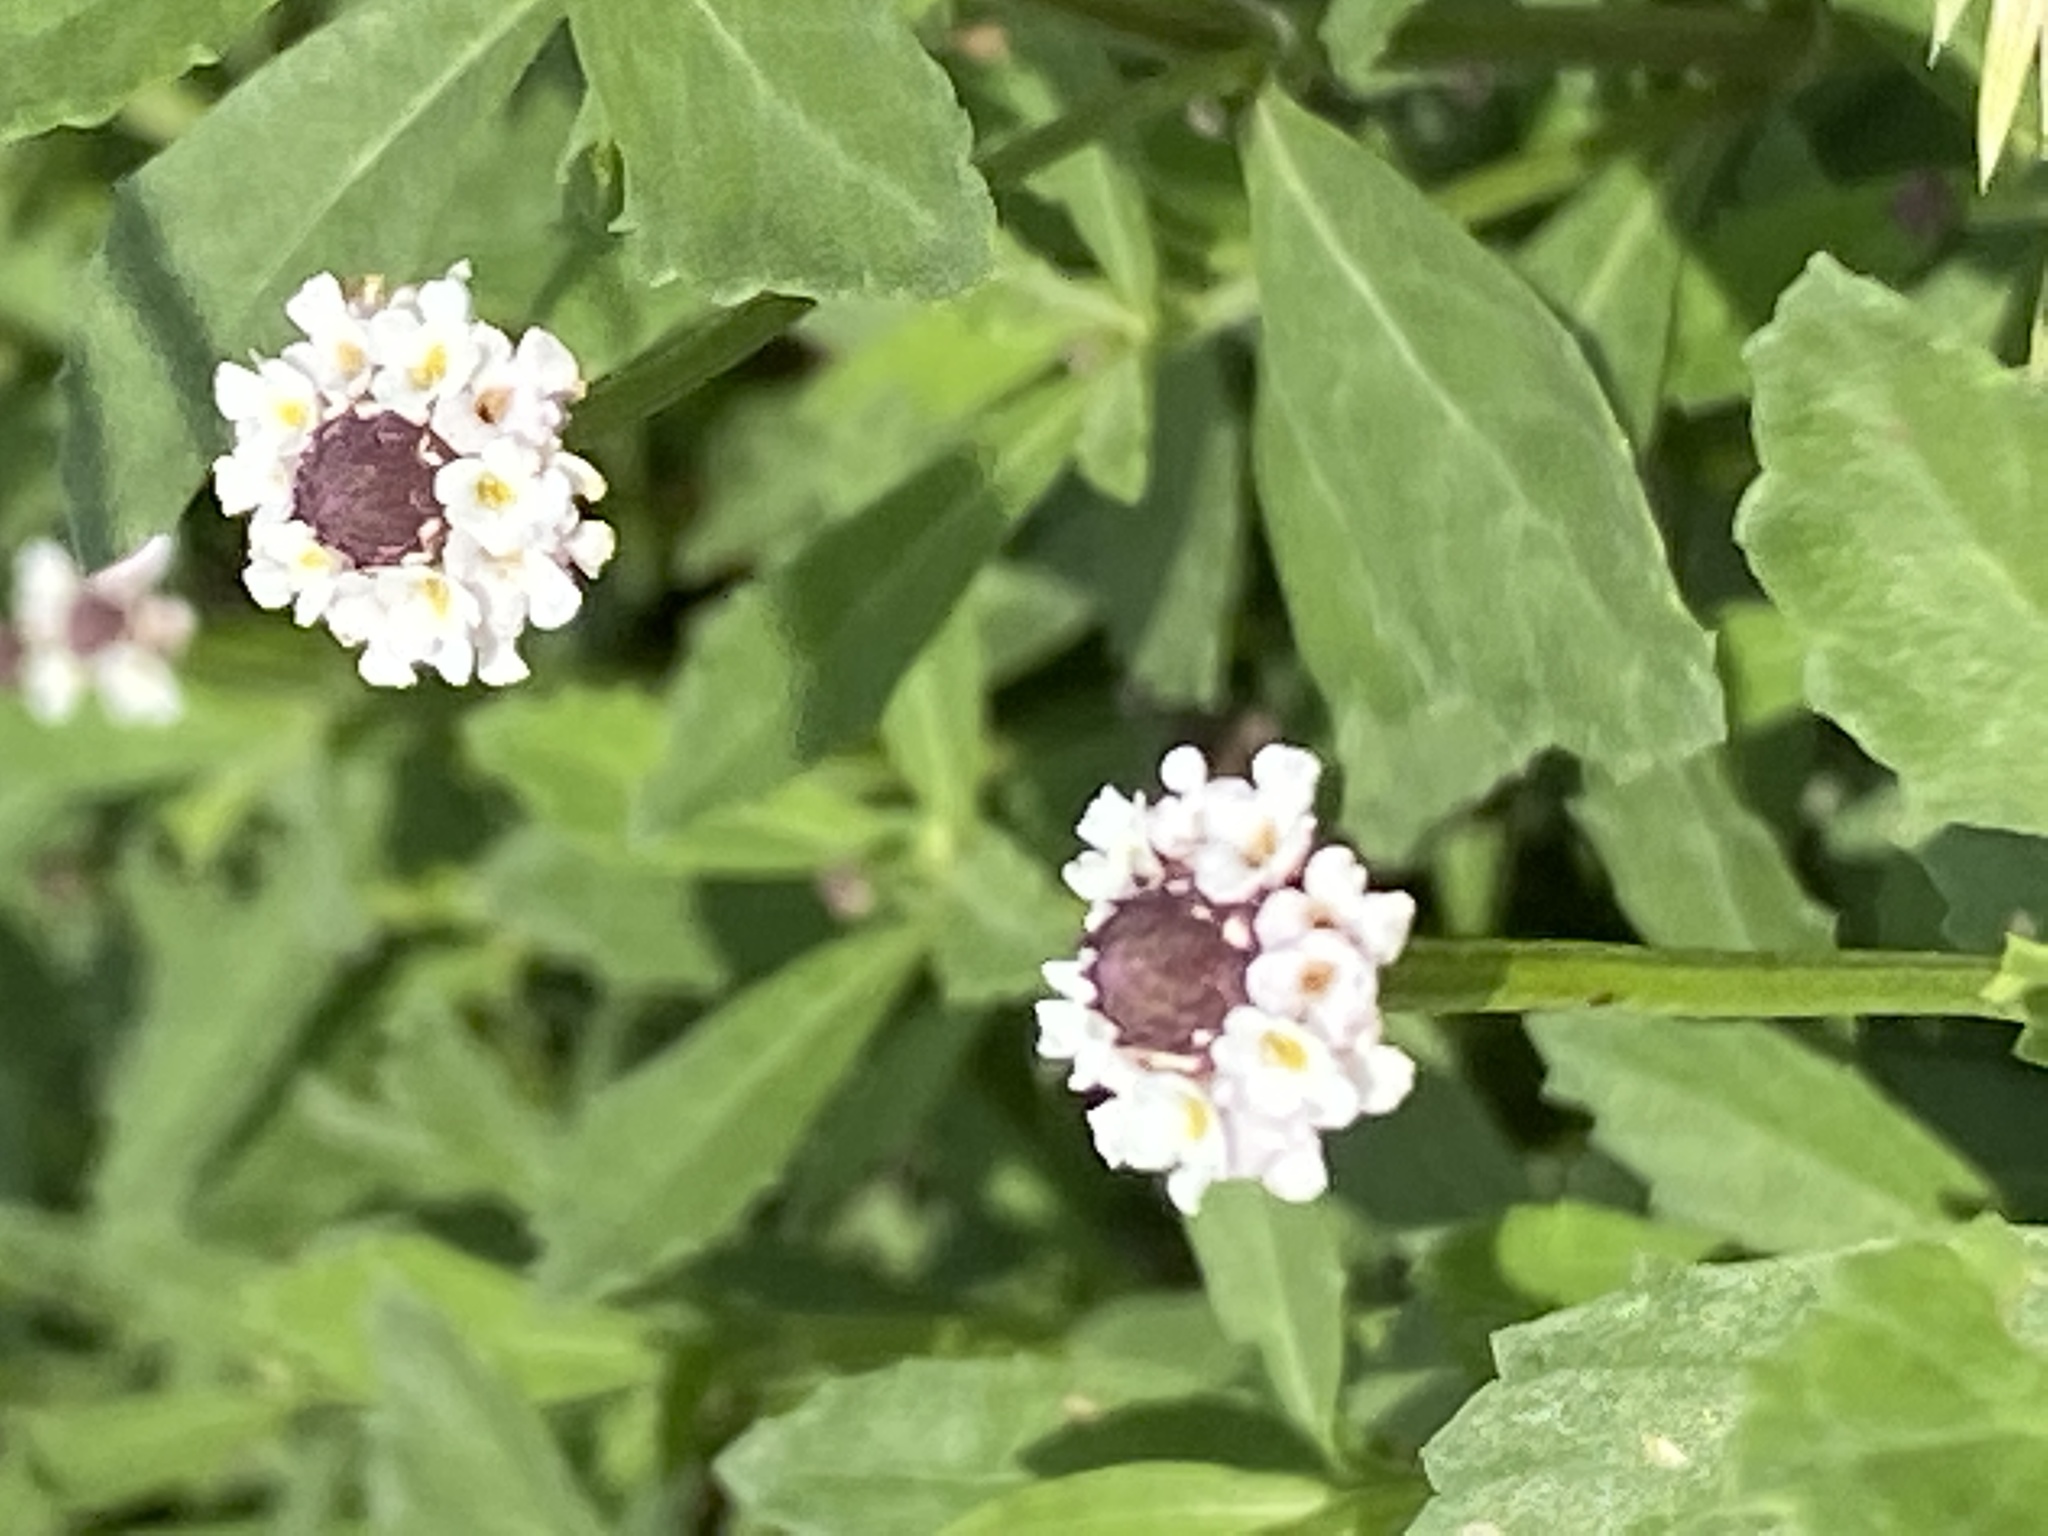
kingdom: Plantae
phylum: Tracheophyta
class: Magnoliopsida
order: Lamiales
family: Verbenaceae
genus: Phyla
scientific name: Phyla nodiflora
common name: Frogfruit
